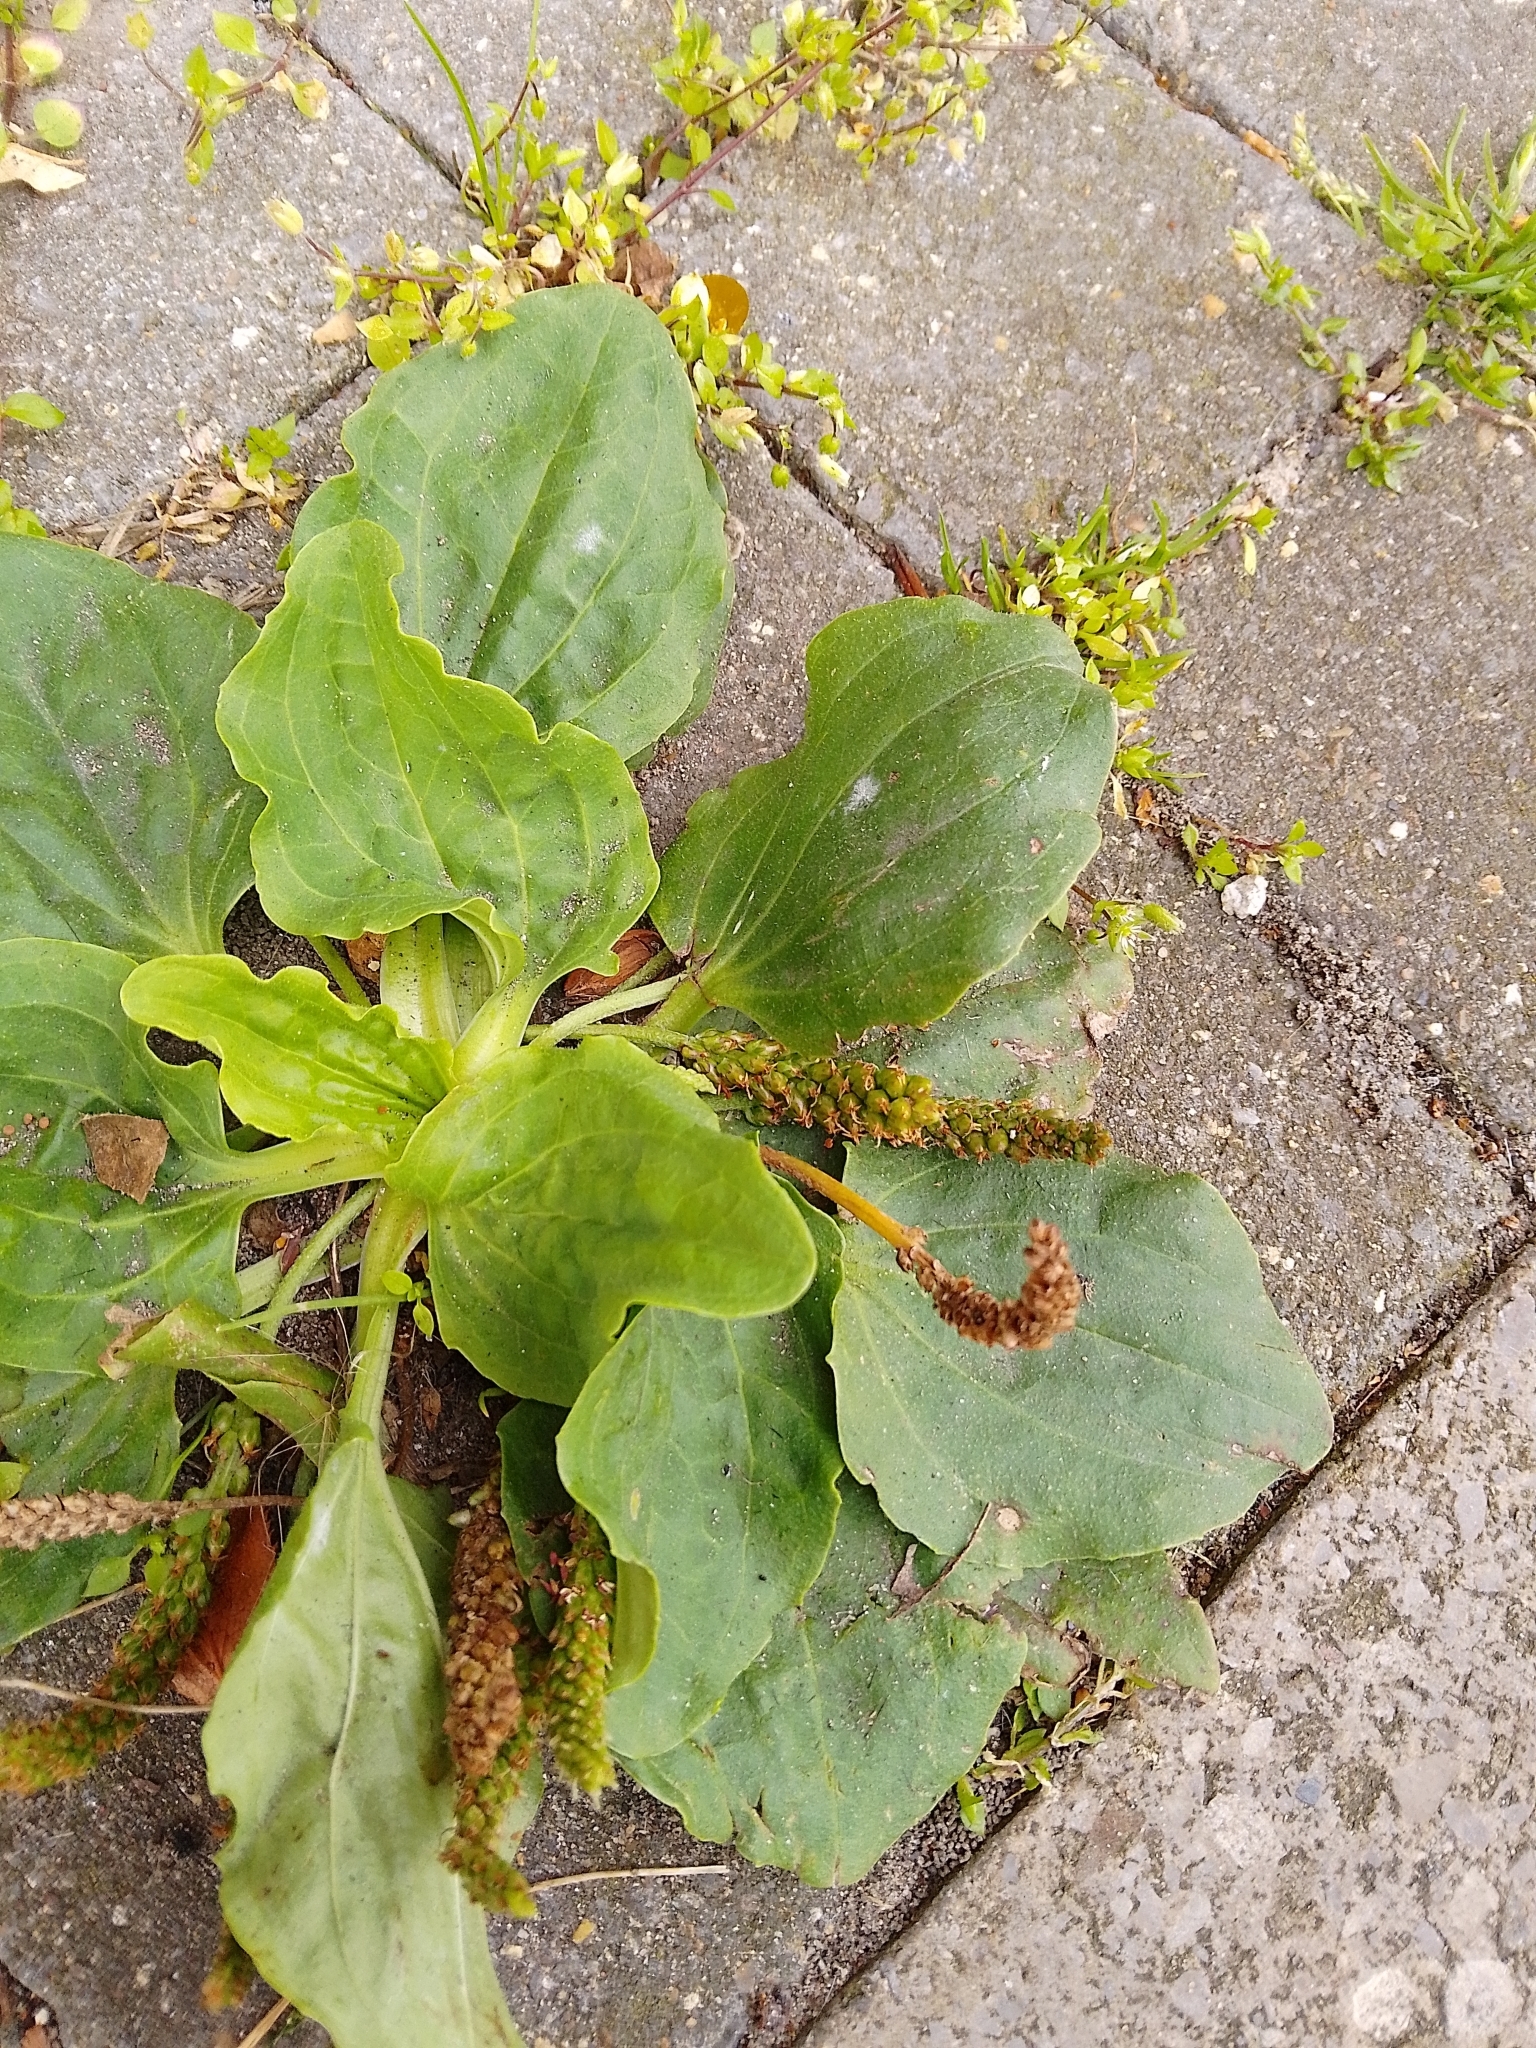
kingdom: Plantae
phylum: Tracheophyta
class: Magnoliopsida
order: Lamiales
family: Plantaginaceae
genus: Plantago
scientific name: Plantago major
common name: Common plantain
